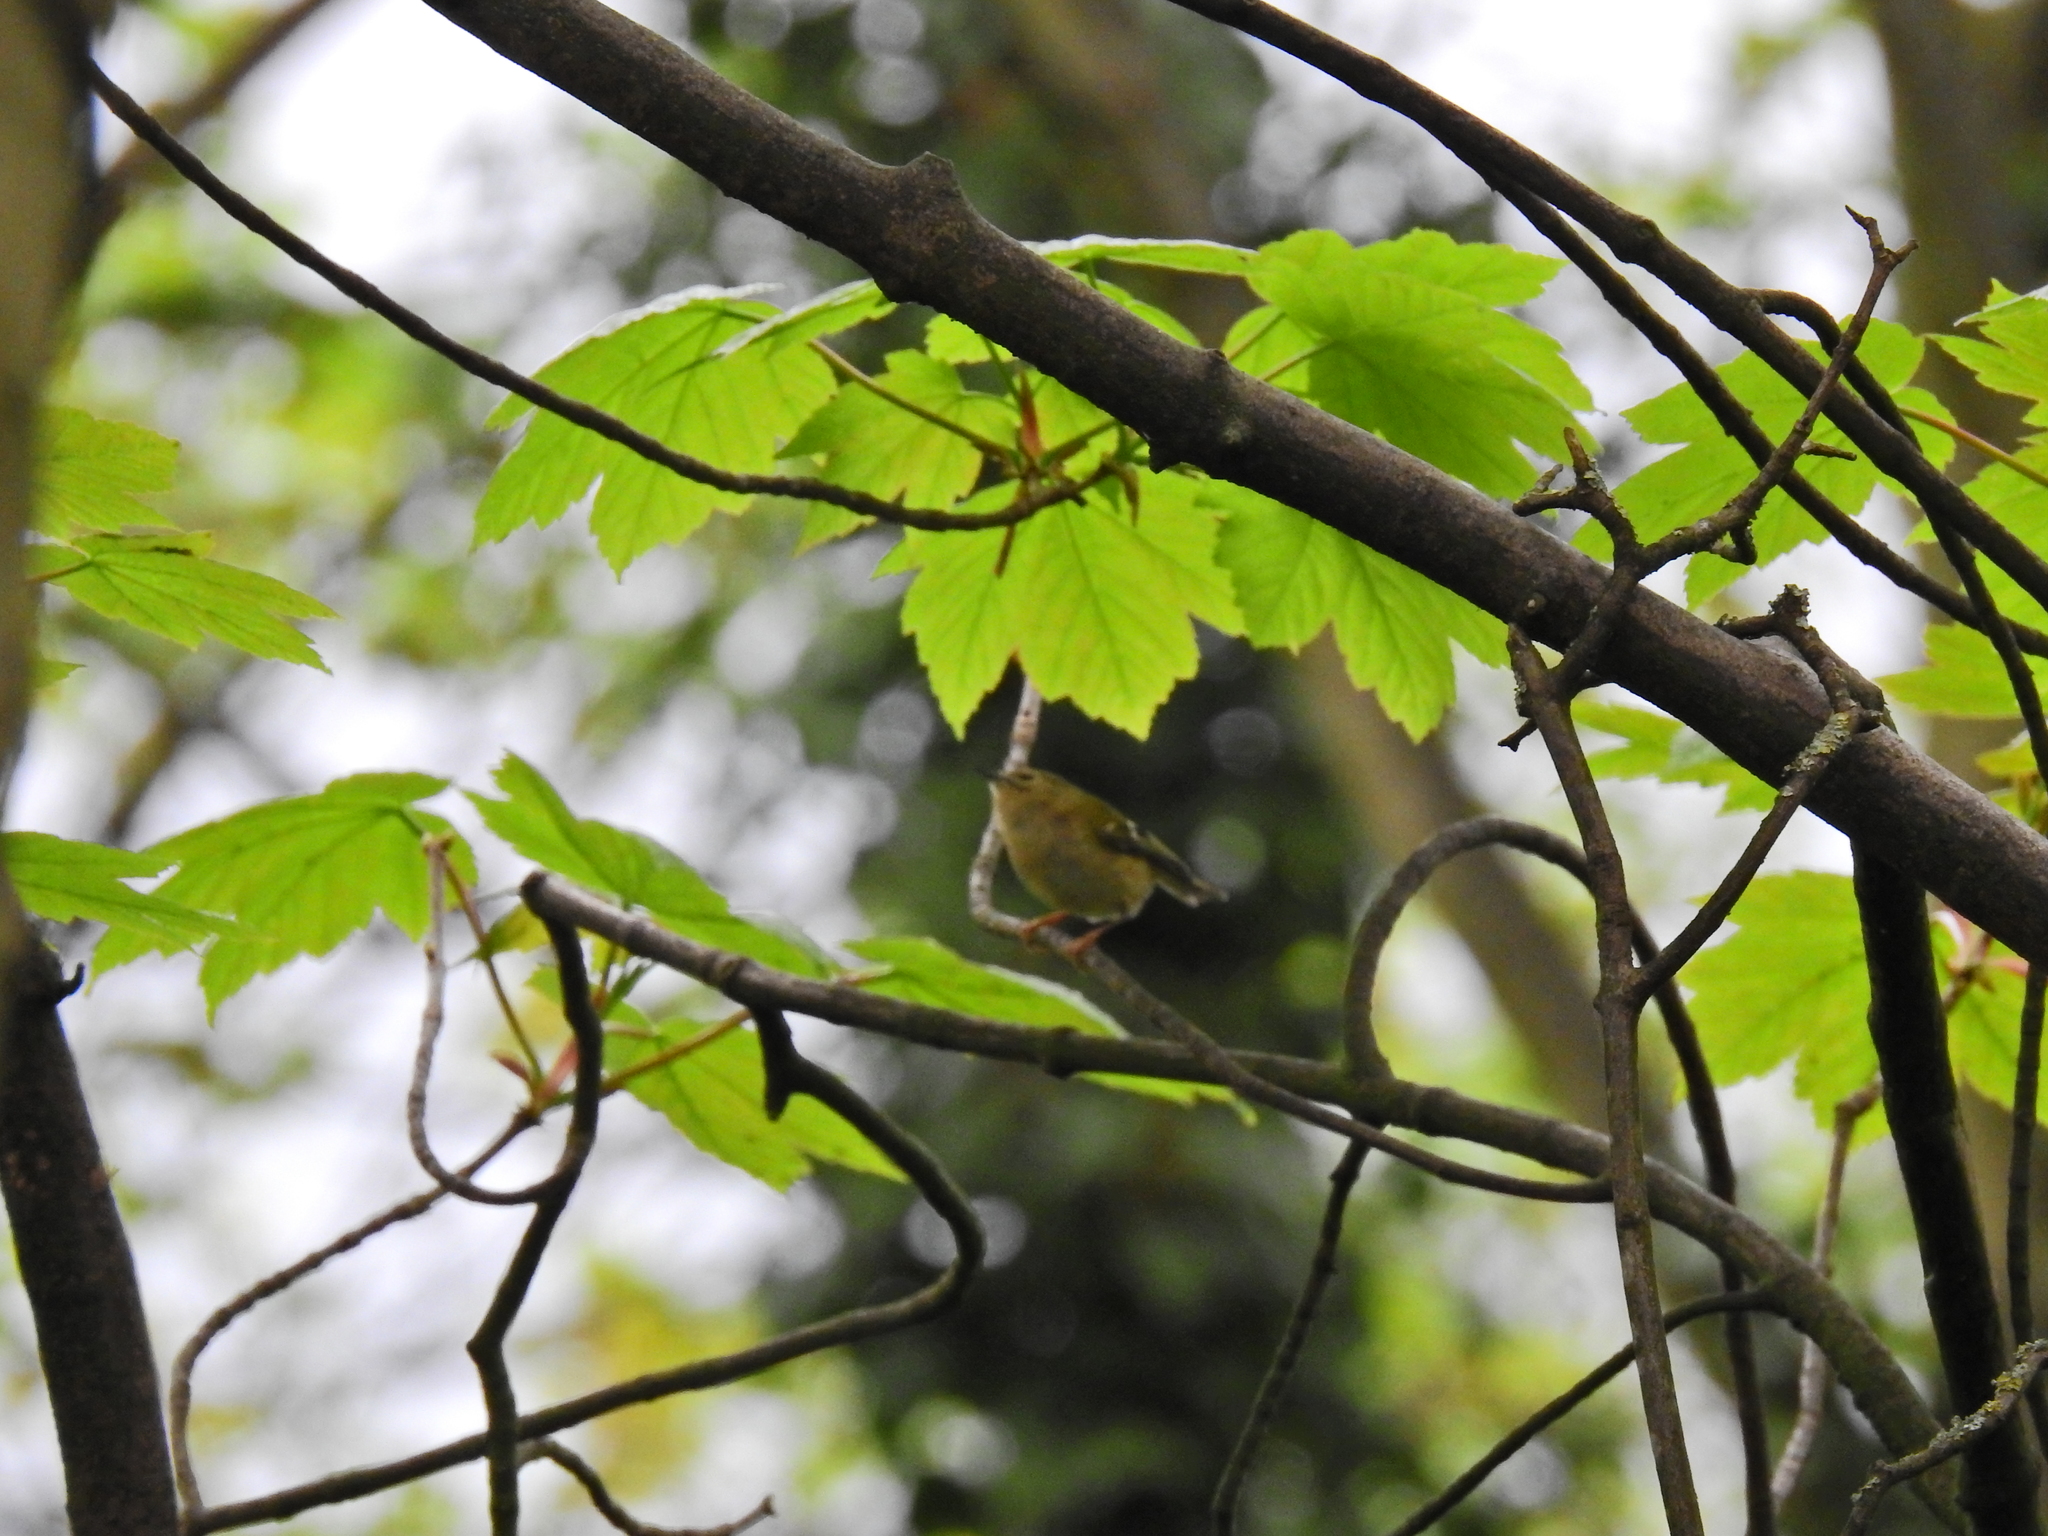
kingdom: Animalia
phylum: Chordata
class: Aves
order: Passeriformes
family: Regulidae
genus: Regulus
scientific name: Regulus regulus
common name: Goldcrest
